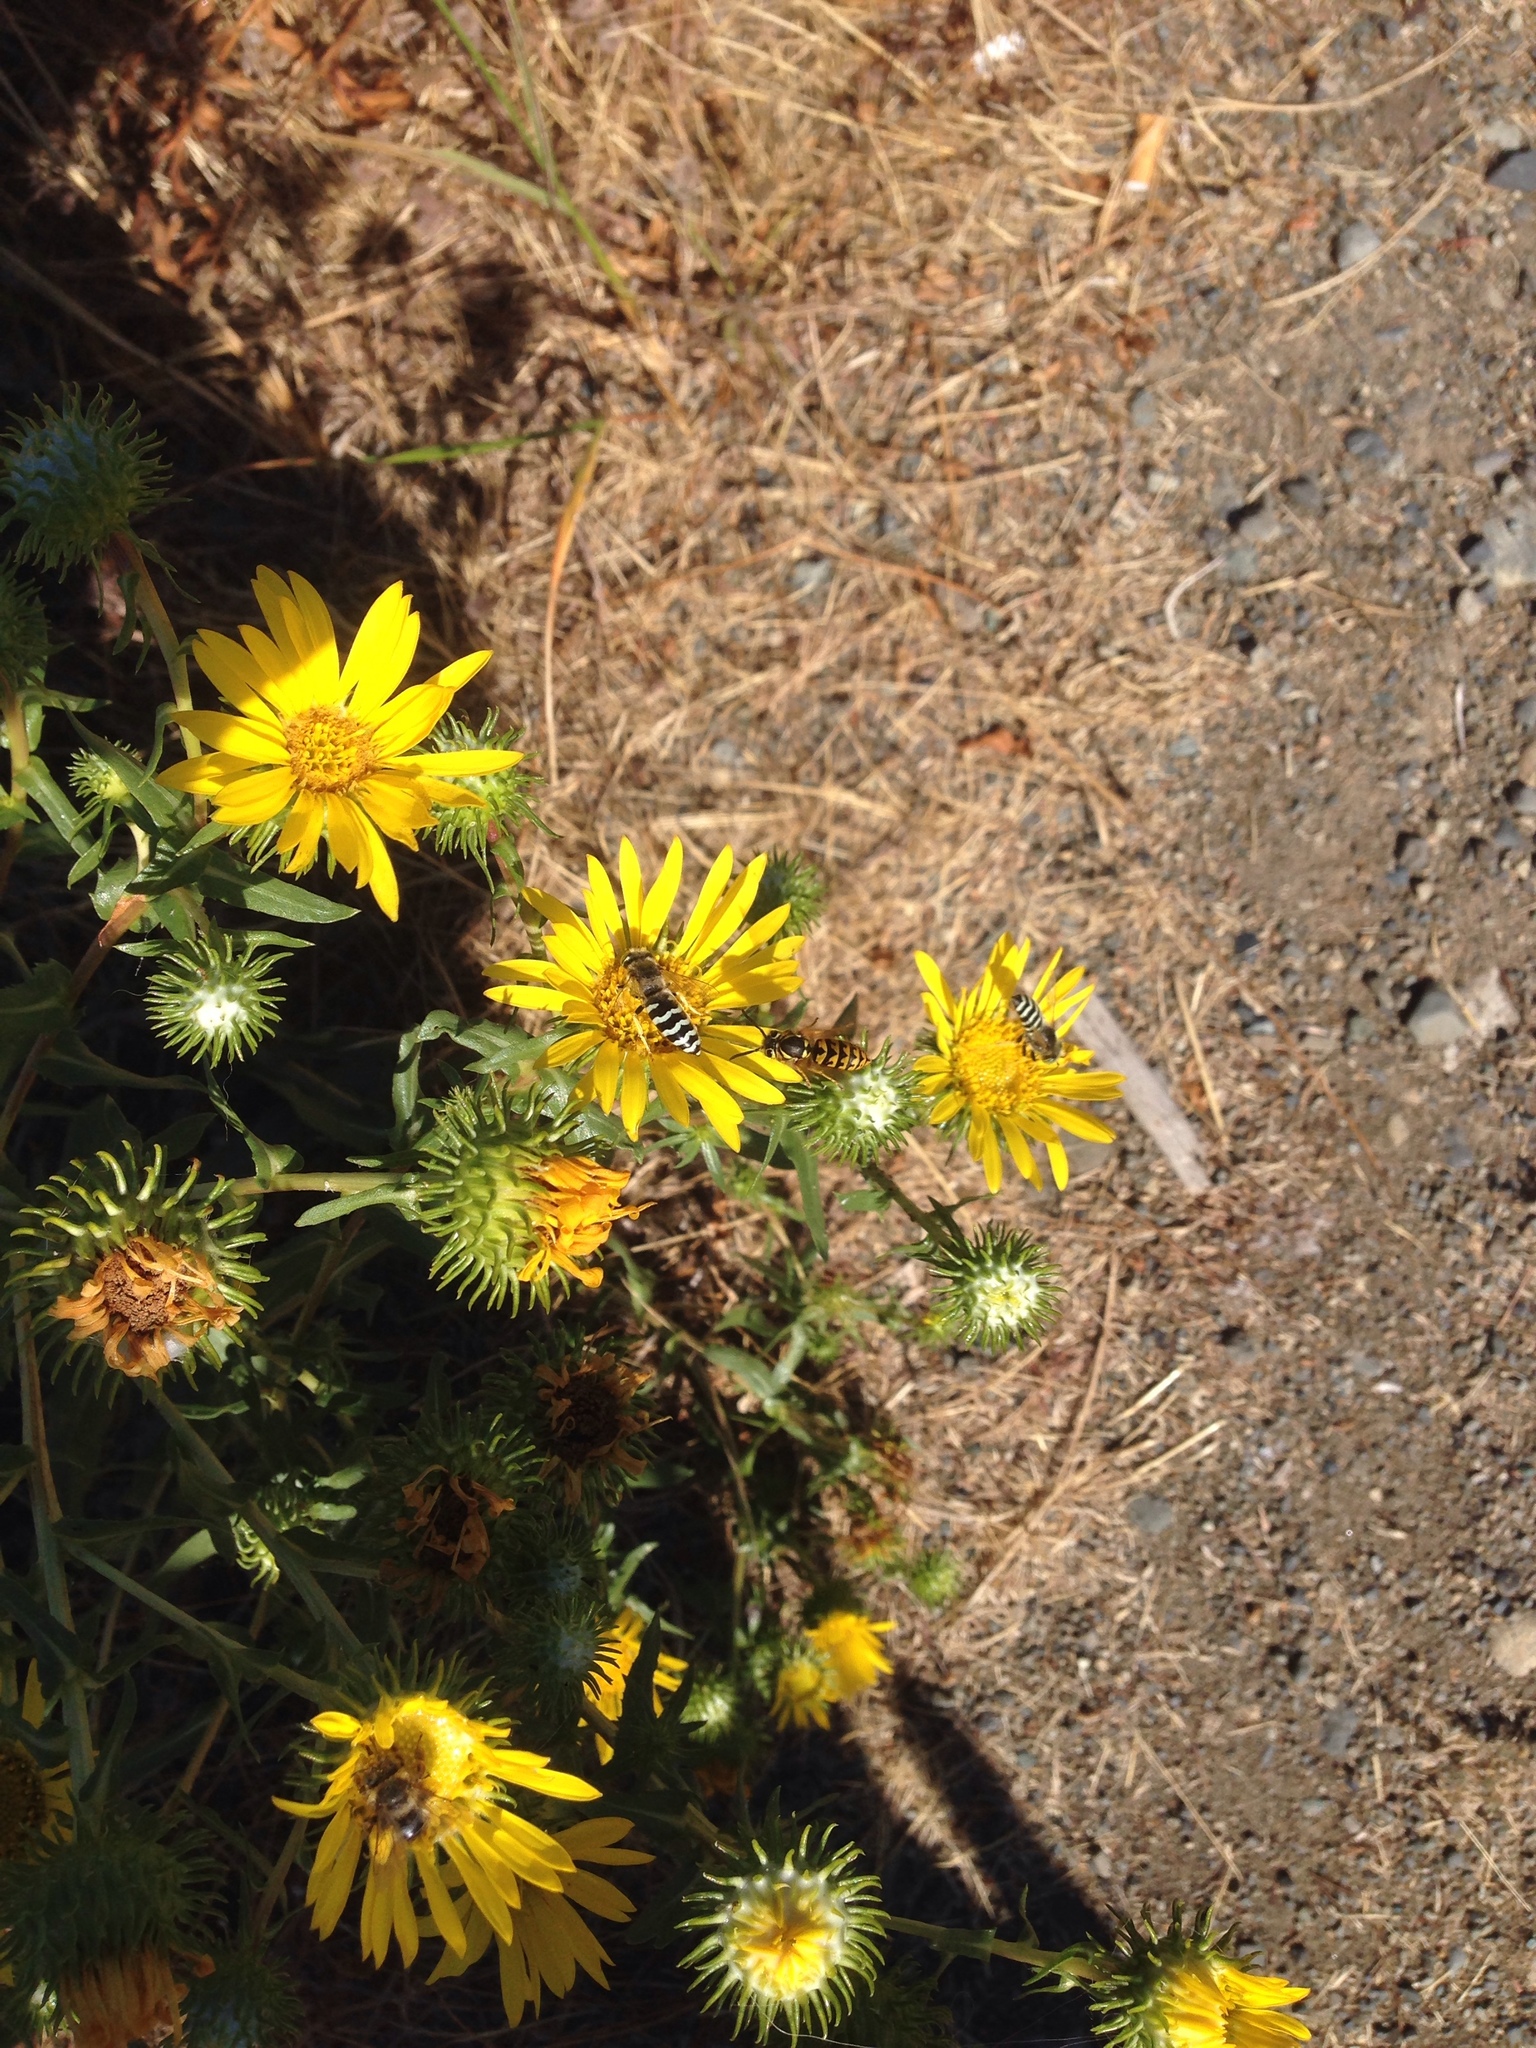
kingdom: Animalia
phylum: Arthropoda
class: Insecta
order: Hymenoptera
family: Crabronidae
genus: Bembix
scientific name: Bembix americana
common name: American sand wasp
